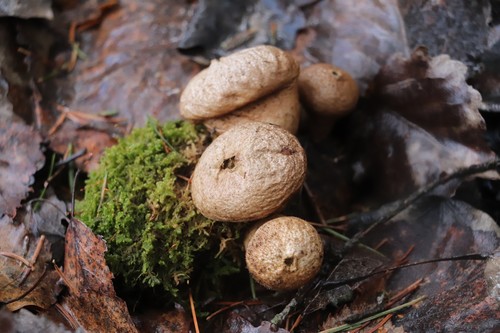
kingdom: Fungi
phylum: Basidiomycota
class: Agaricomycetes
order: Agaricales
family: Lycoperdaceae
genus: Lycoperdon
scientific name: Lycoperdon
